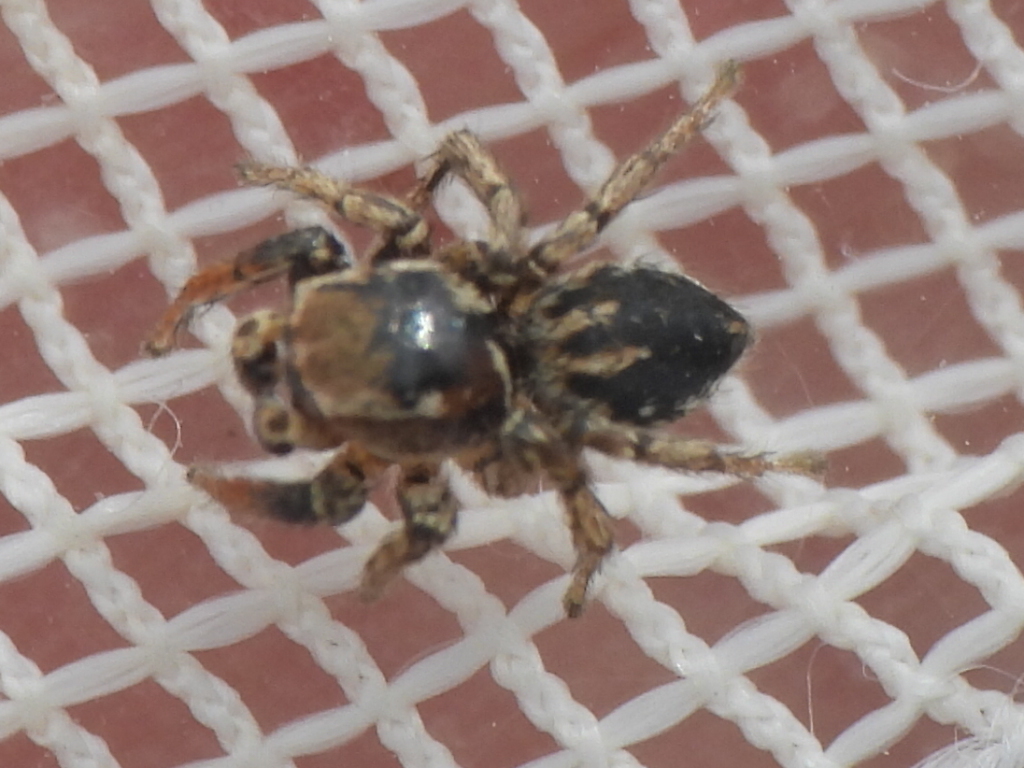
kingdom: Animalia
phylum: Arthropoda
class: Arachnida
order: Araneae
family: Salticidae
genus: Habronattus
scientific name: Habronattus texanus
